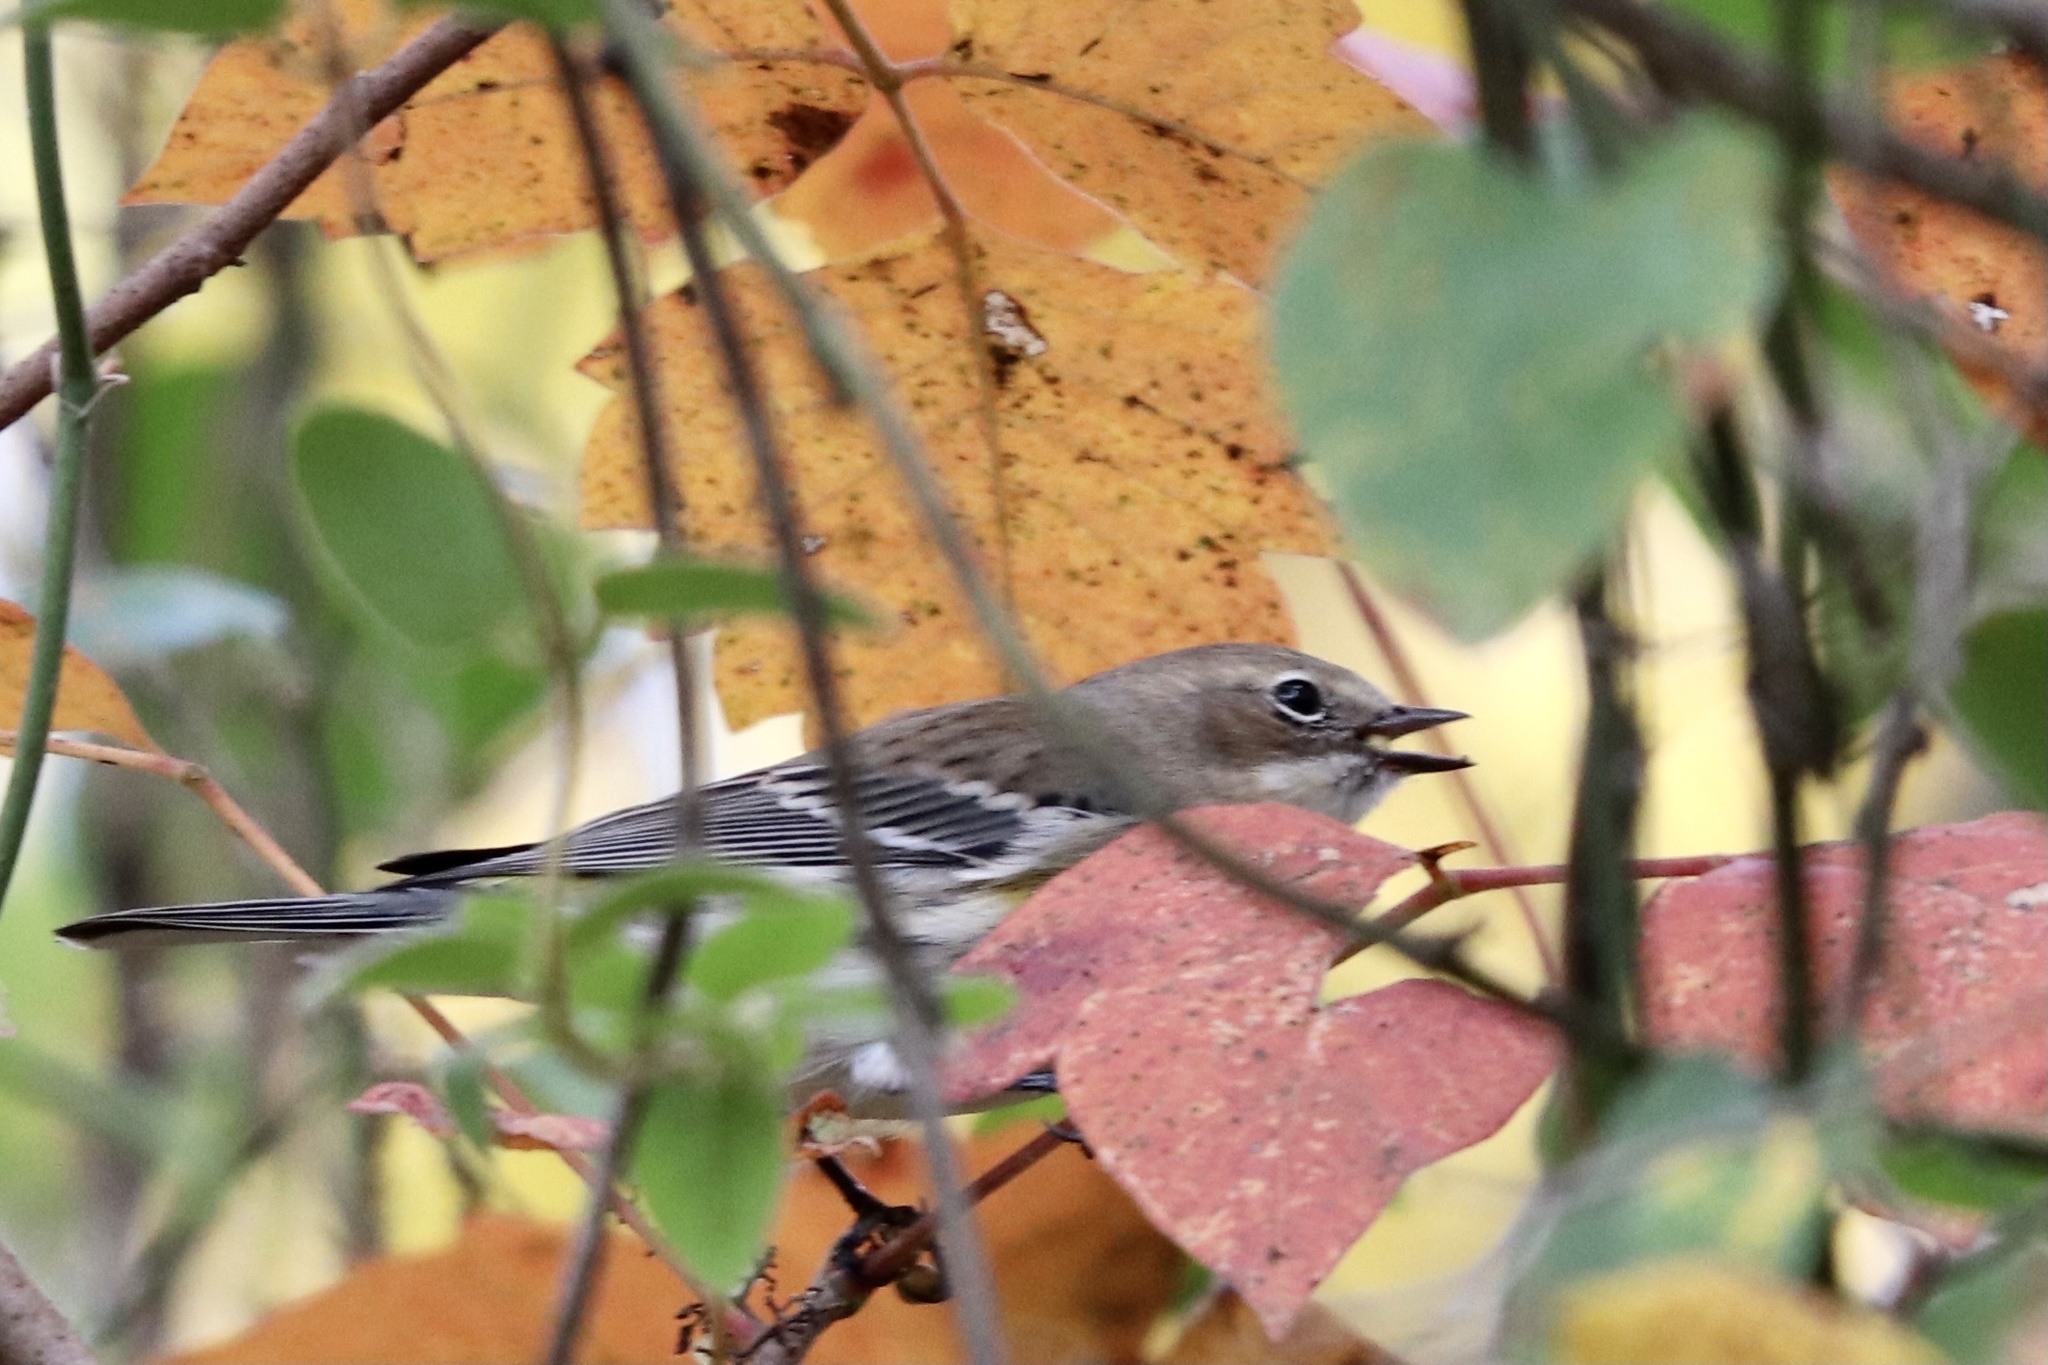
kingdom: Animalia
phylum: Chordata
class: Aves
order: Passeriformes
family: Parulidae
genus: Setophaga
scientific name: Setophaga coronata
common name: Myrtle warbler
